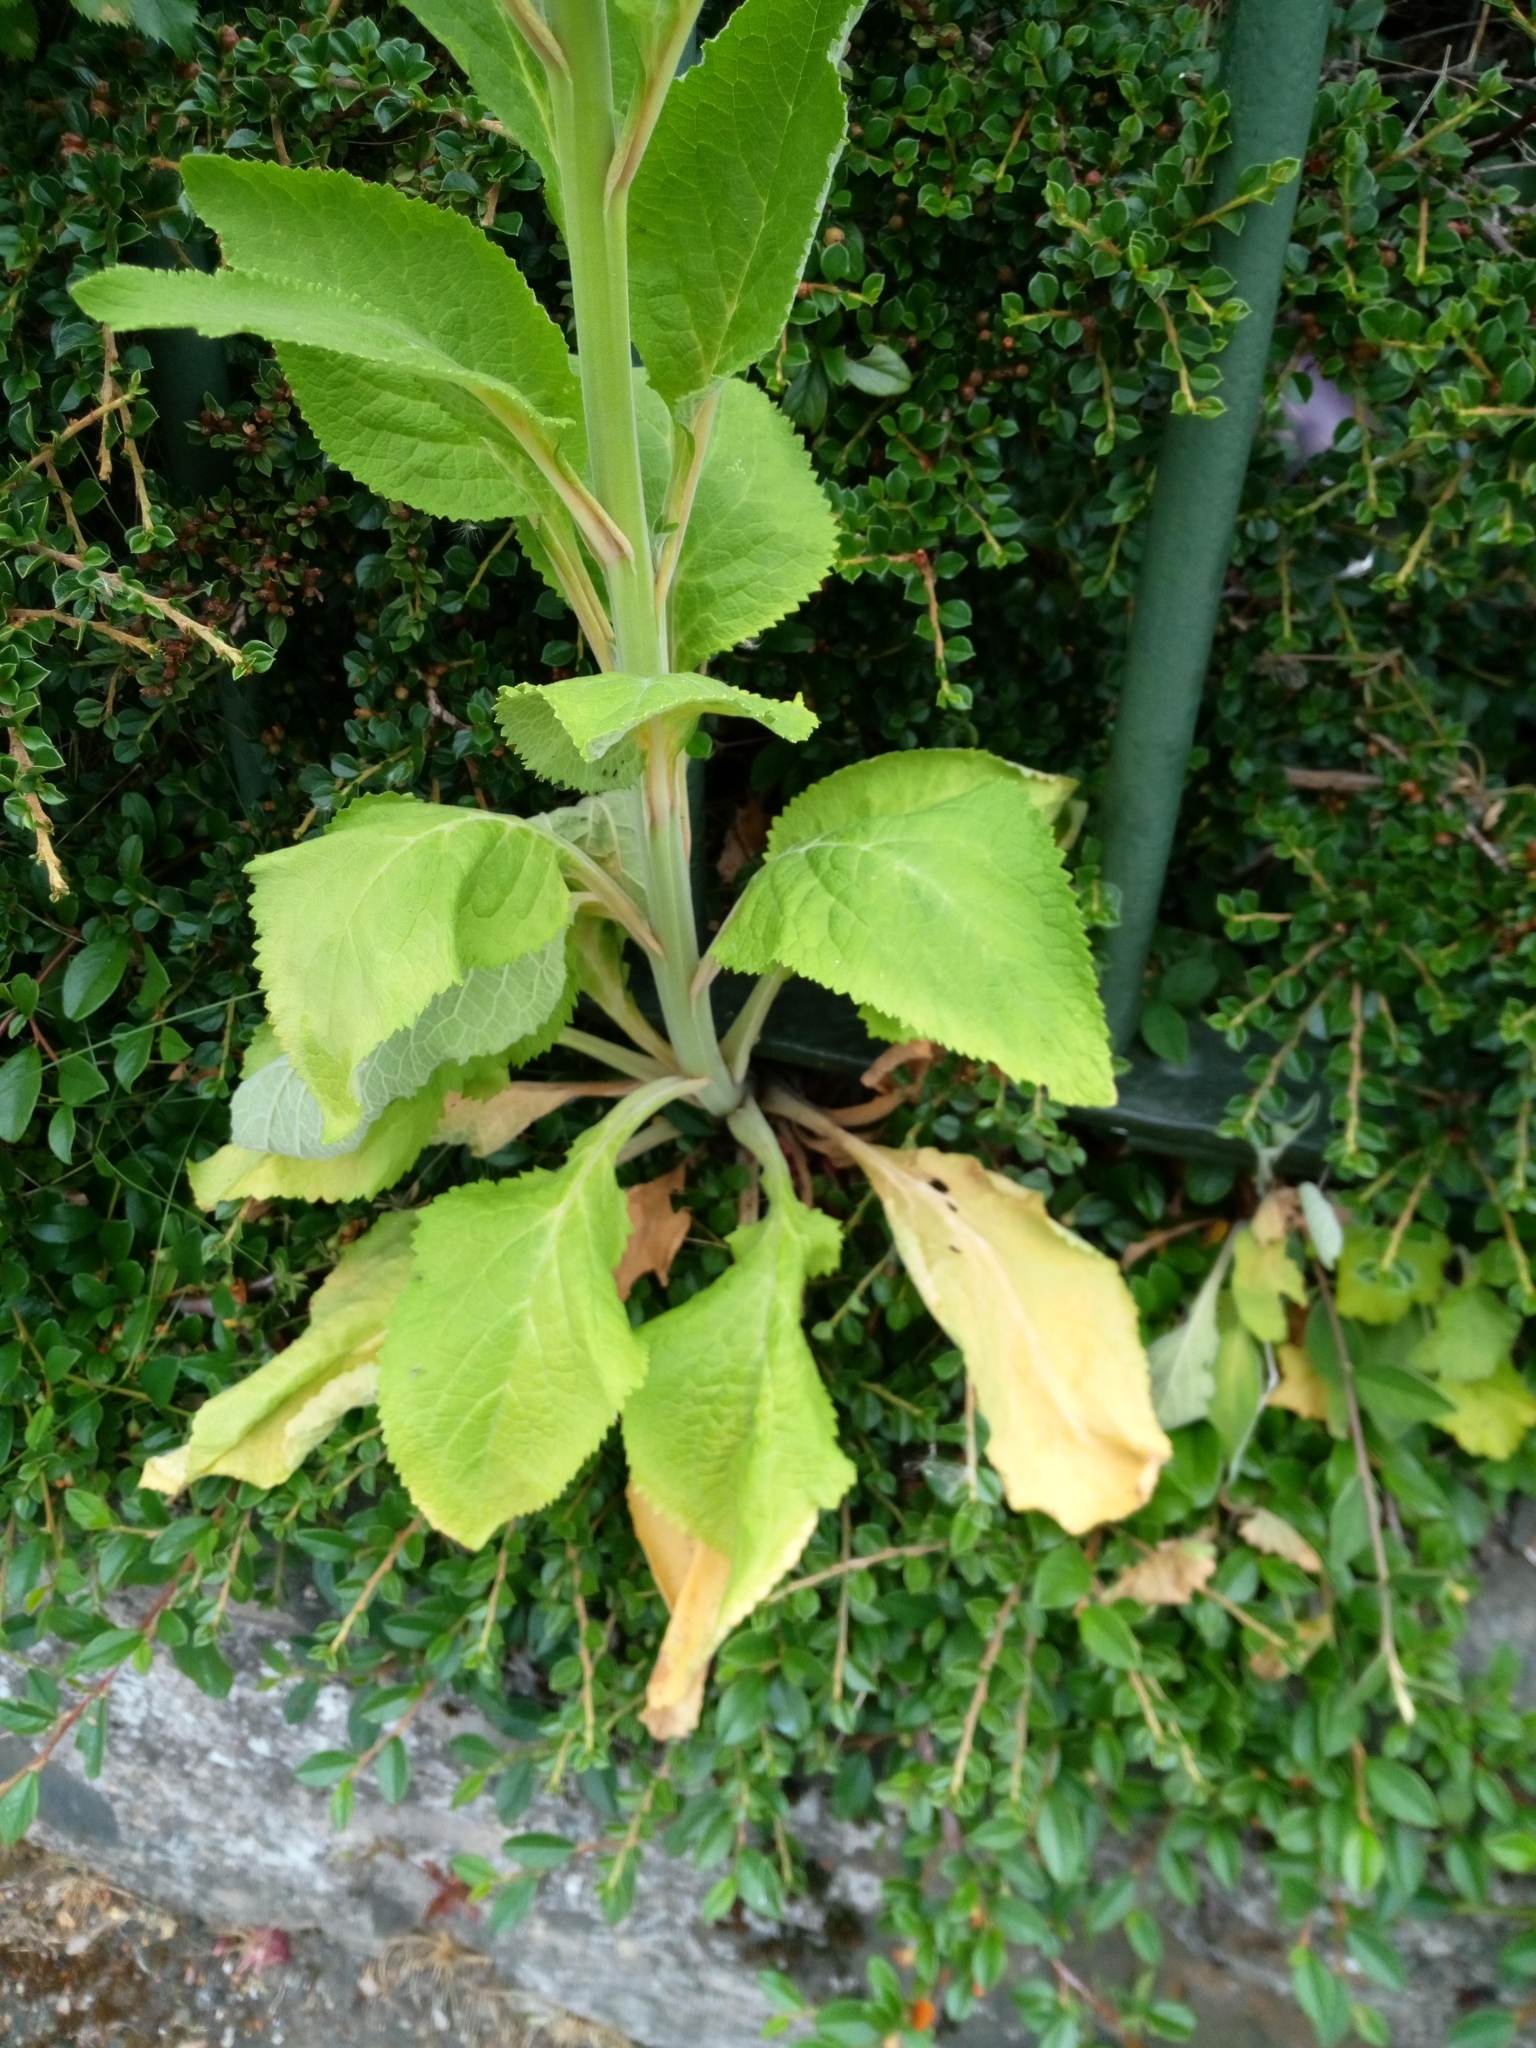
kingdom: Plantae
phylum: Tracheophyta
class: Magnoliopsida
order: Lamiales
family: Plantaginaceae
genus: Digitalis
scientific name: Digitalis purpurea
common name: Foxglove
